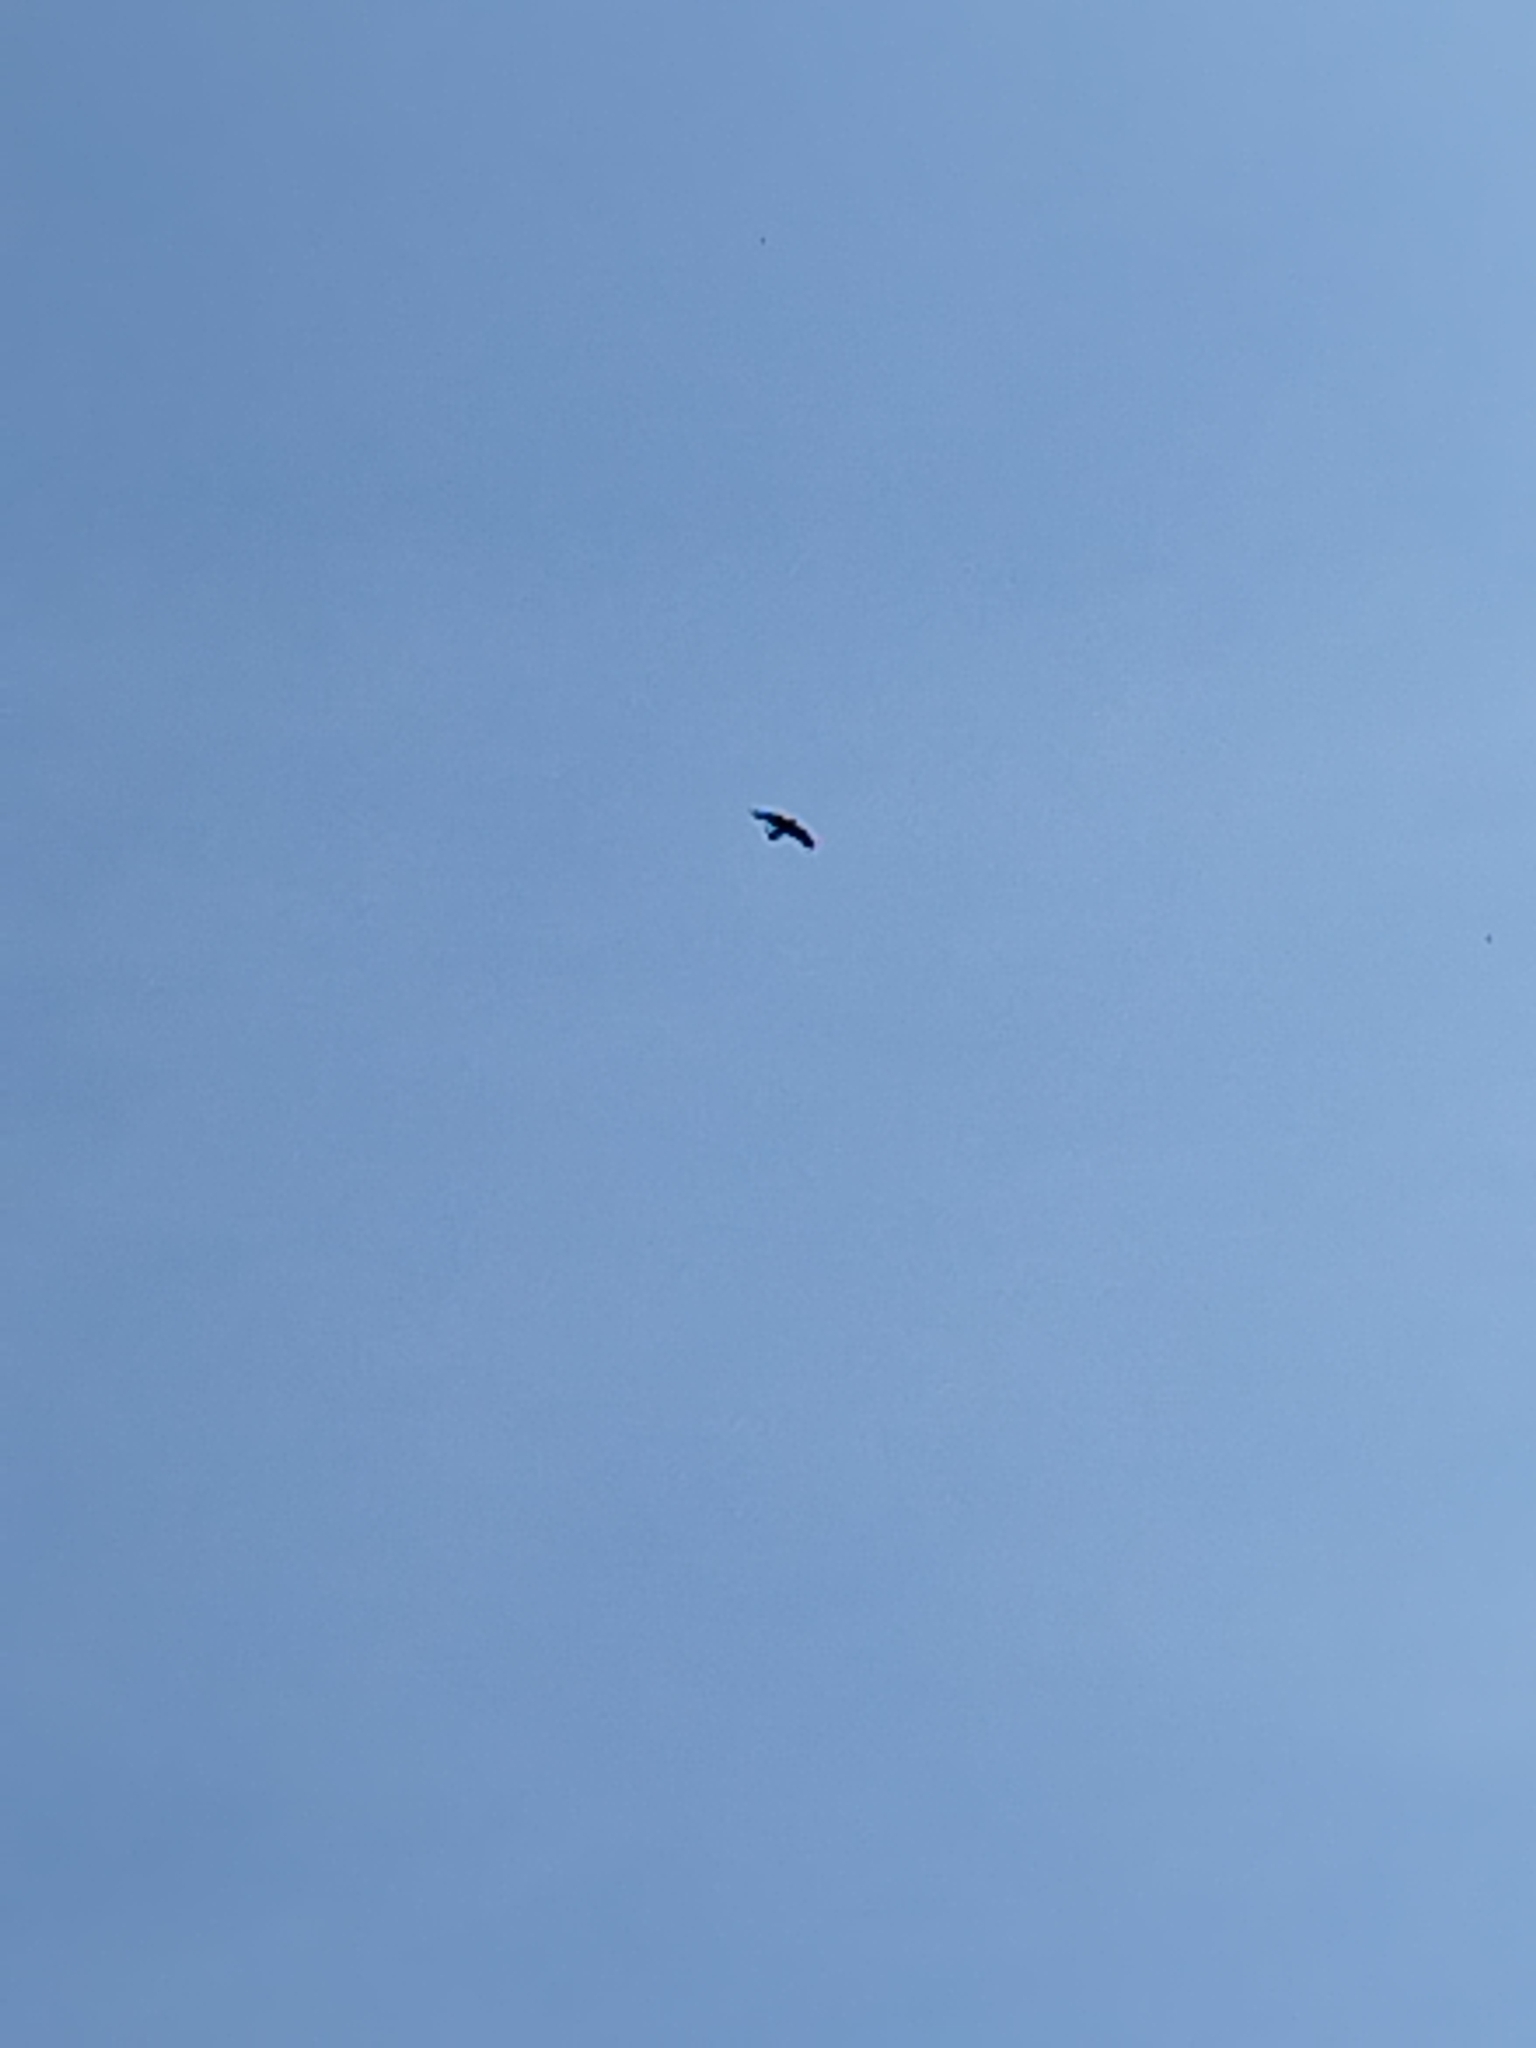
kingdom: Animalia
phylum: Chordata
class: Aves
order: Passeriformes
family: Corvidae
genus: Corvus
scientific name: Corvus corax
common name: Common raven
